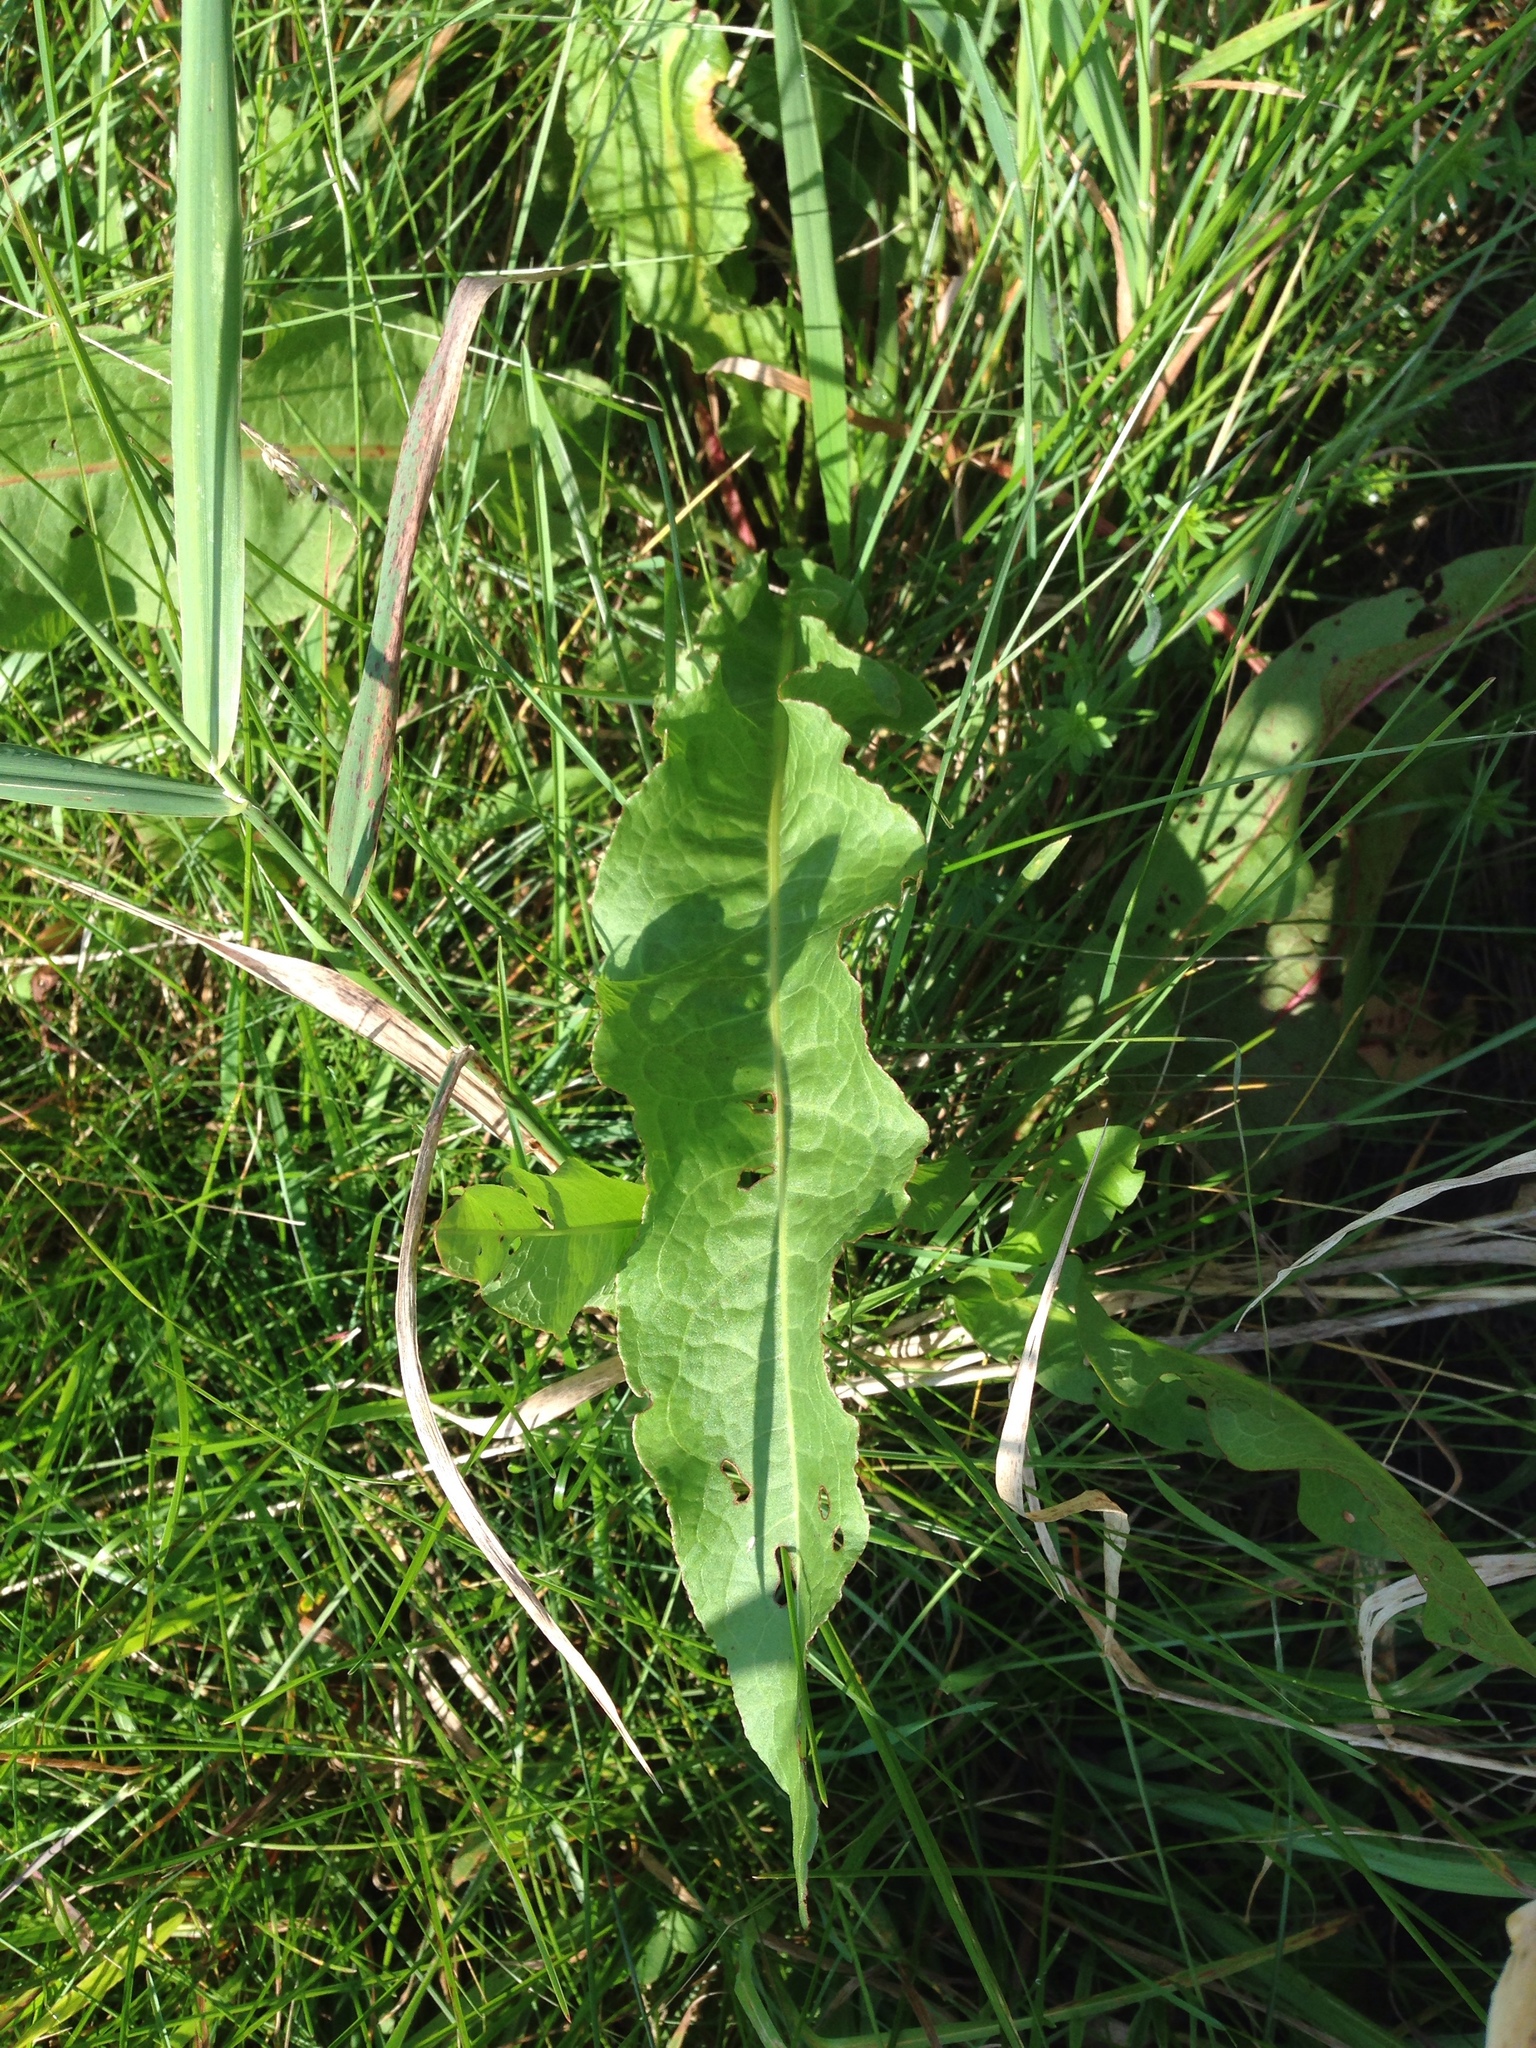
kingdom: Plantae
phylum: Tracheophyta
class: Magnoliopsida
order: Caryophyllales
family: Polygonaceae
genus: Rumex
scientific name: Rumex crispus
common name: Curled dock
